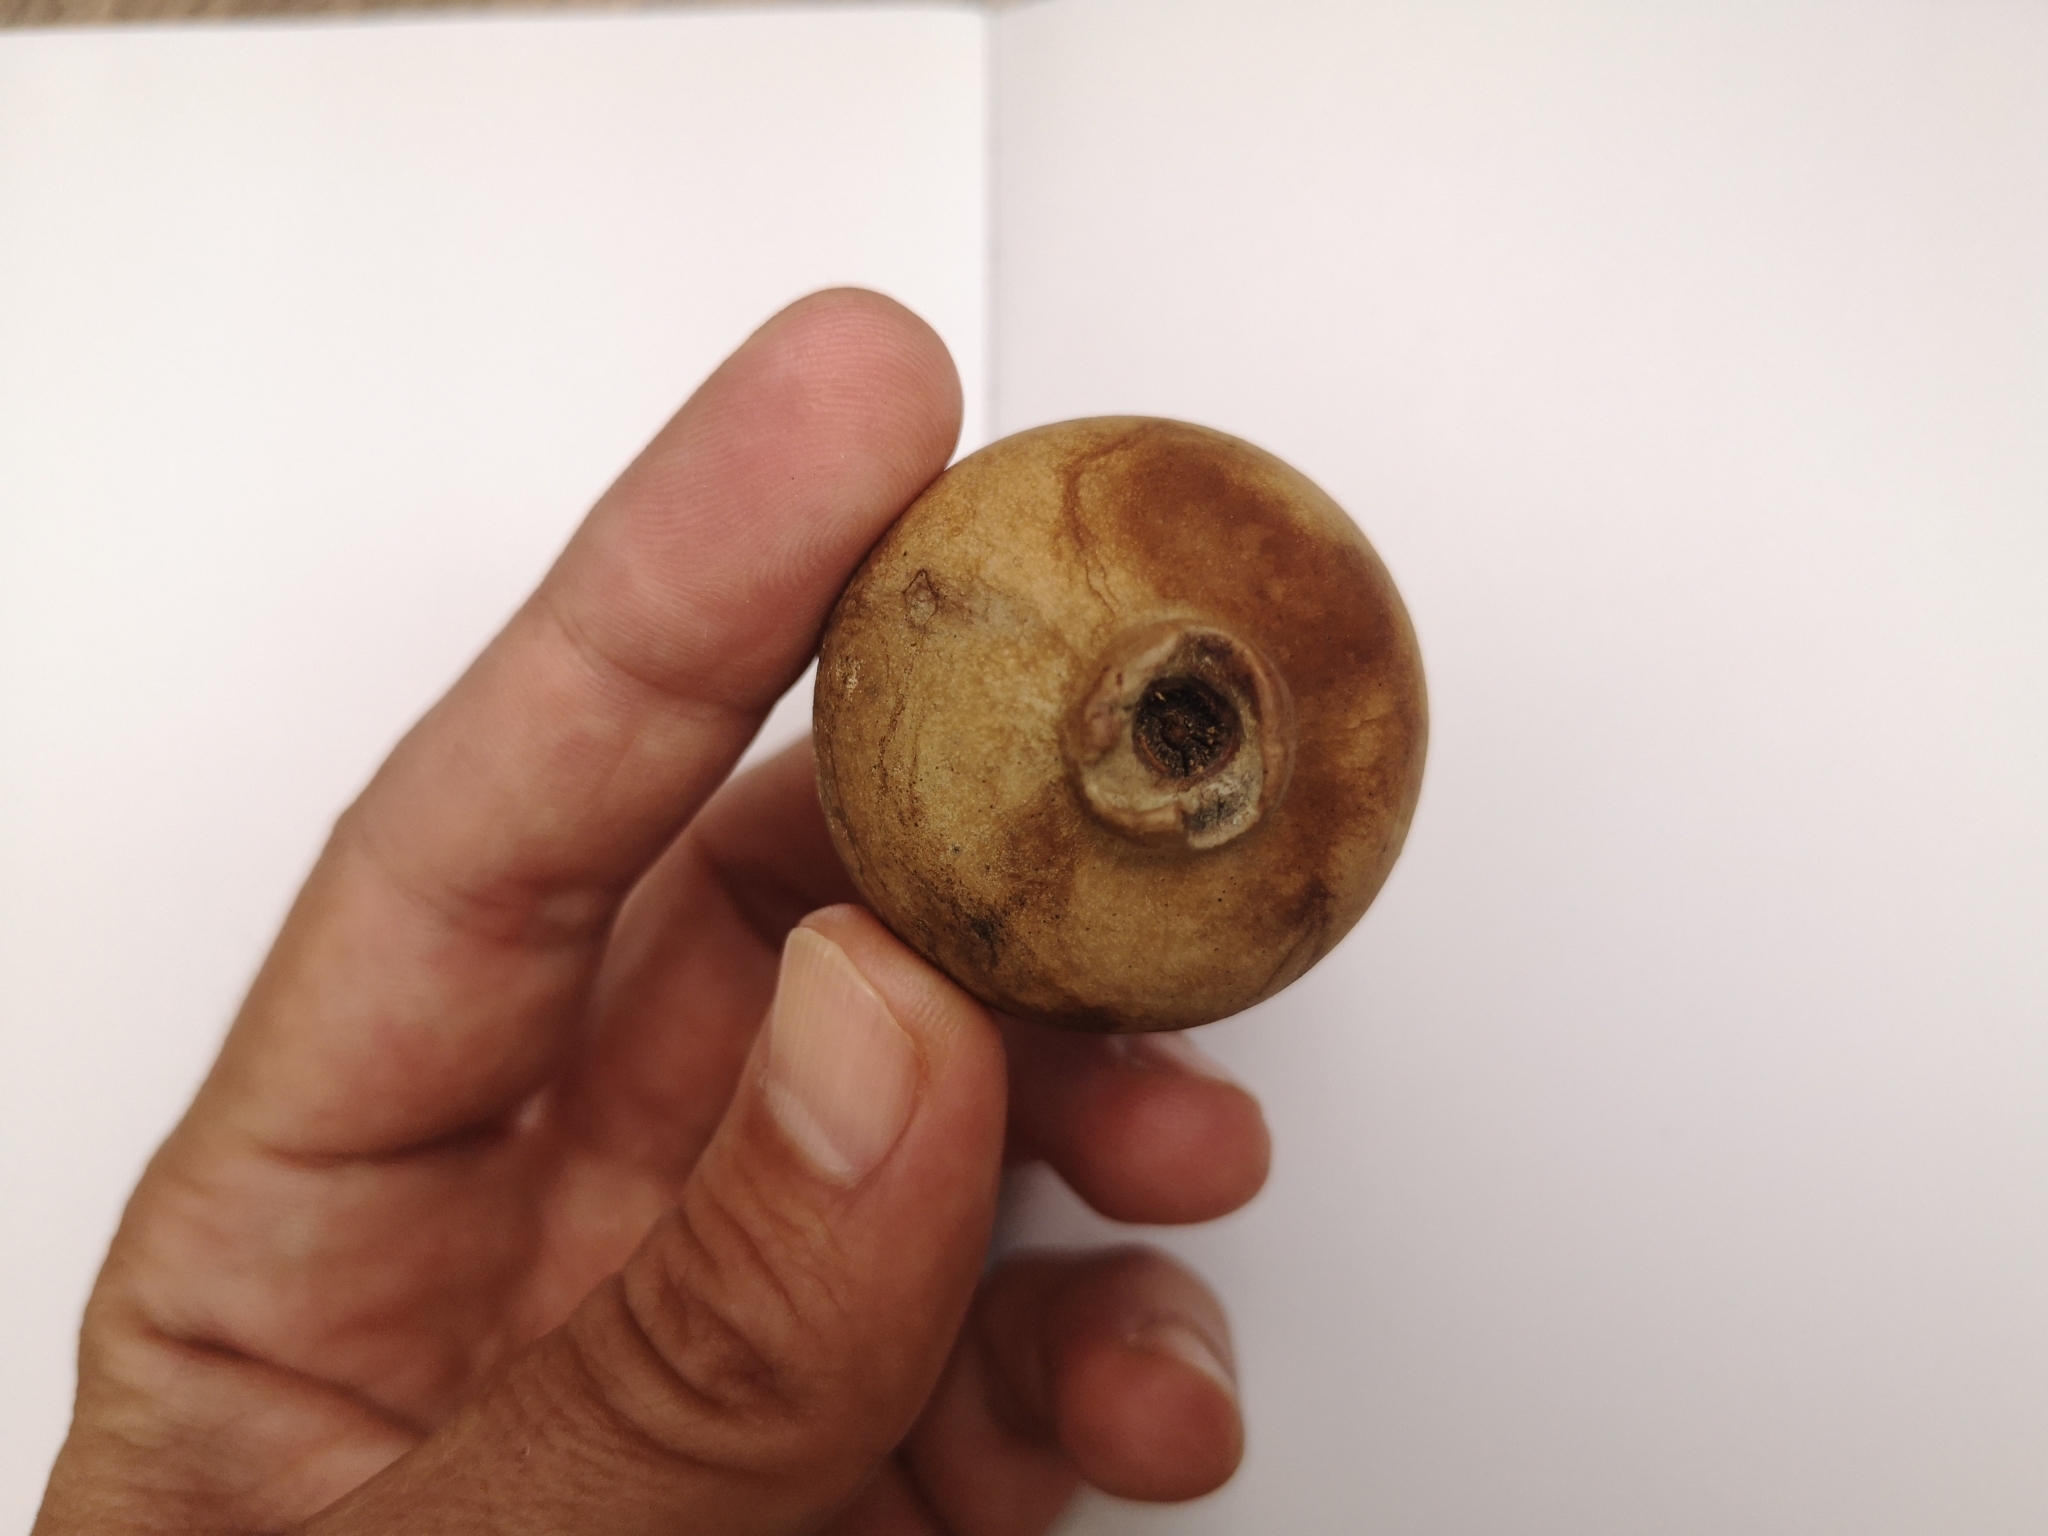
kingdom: Animalia
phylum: Arthropoda
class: Insecta
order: Hymenoptera
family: Cynipidae
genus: Andricus
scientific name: Andricus quercustozae
